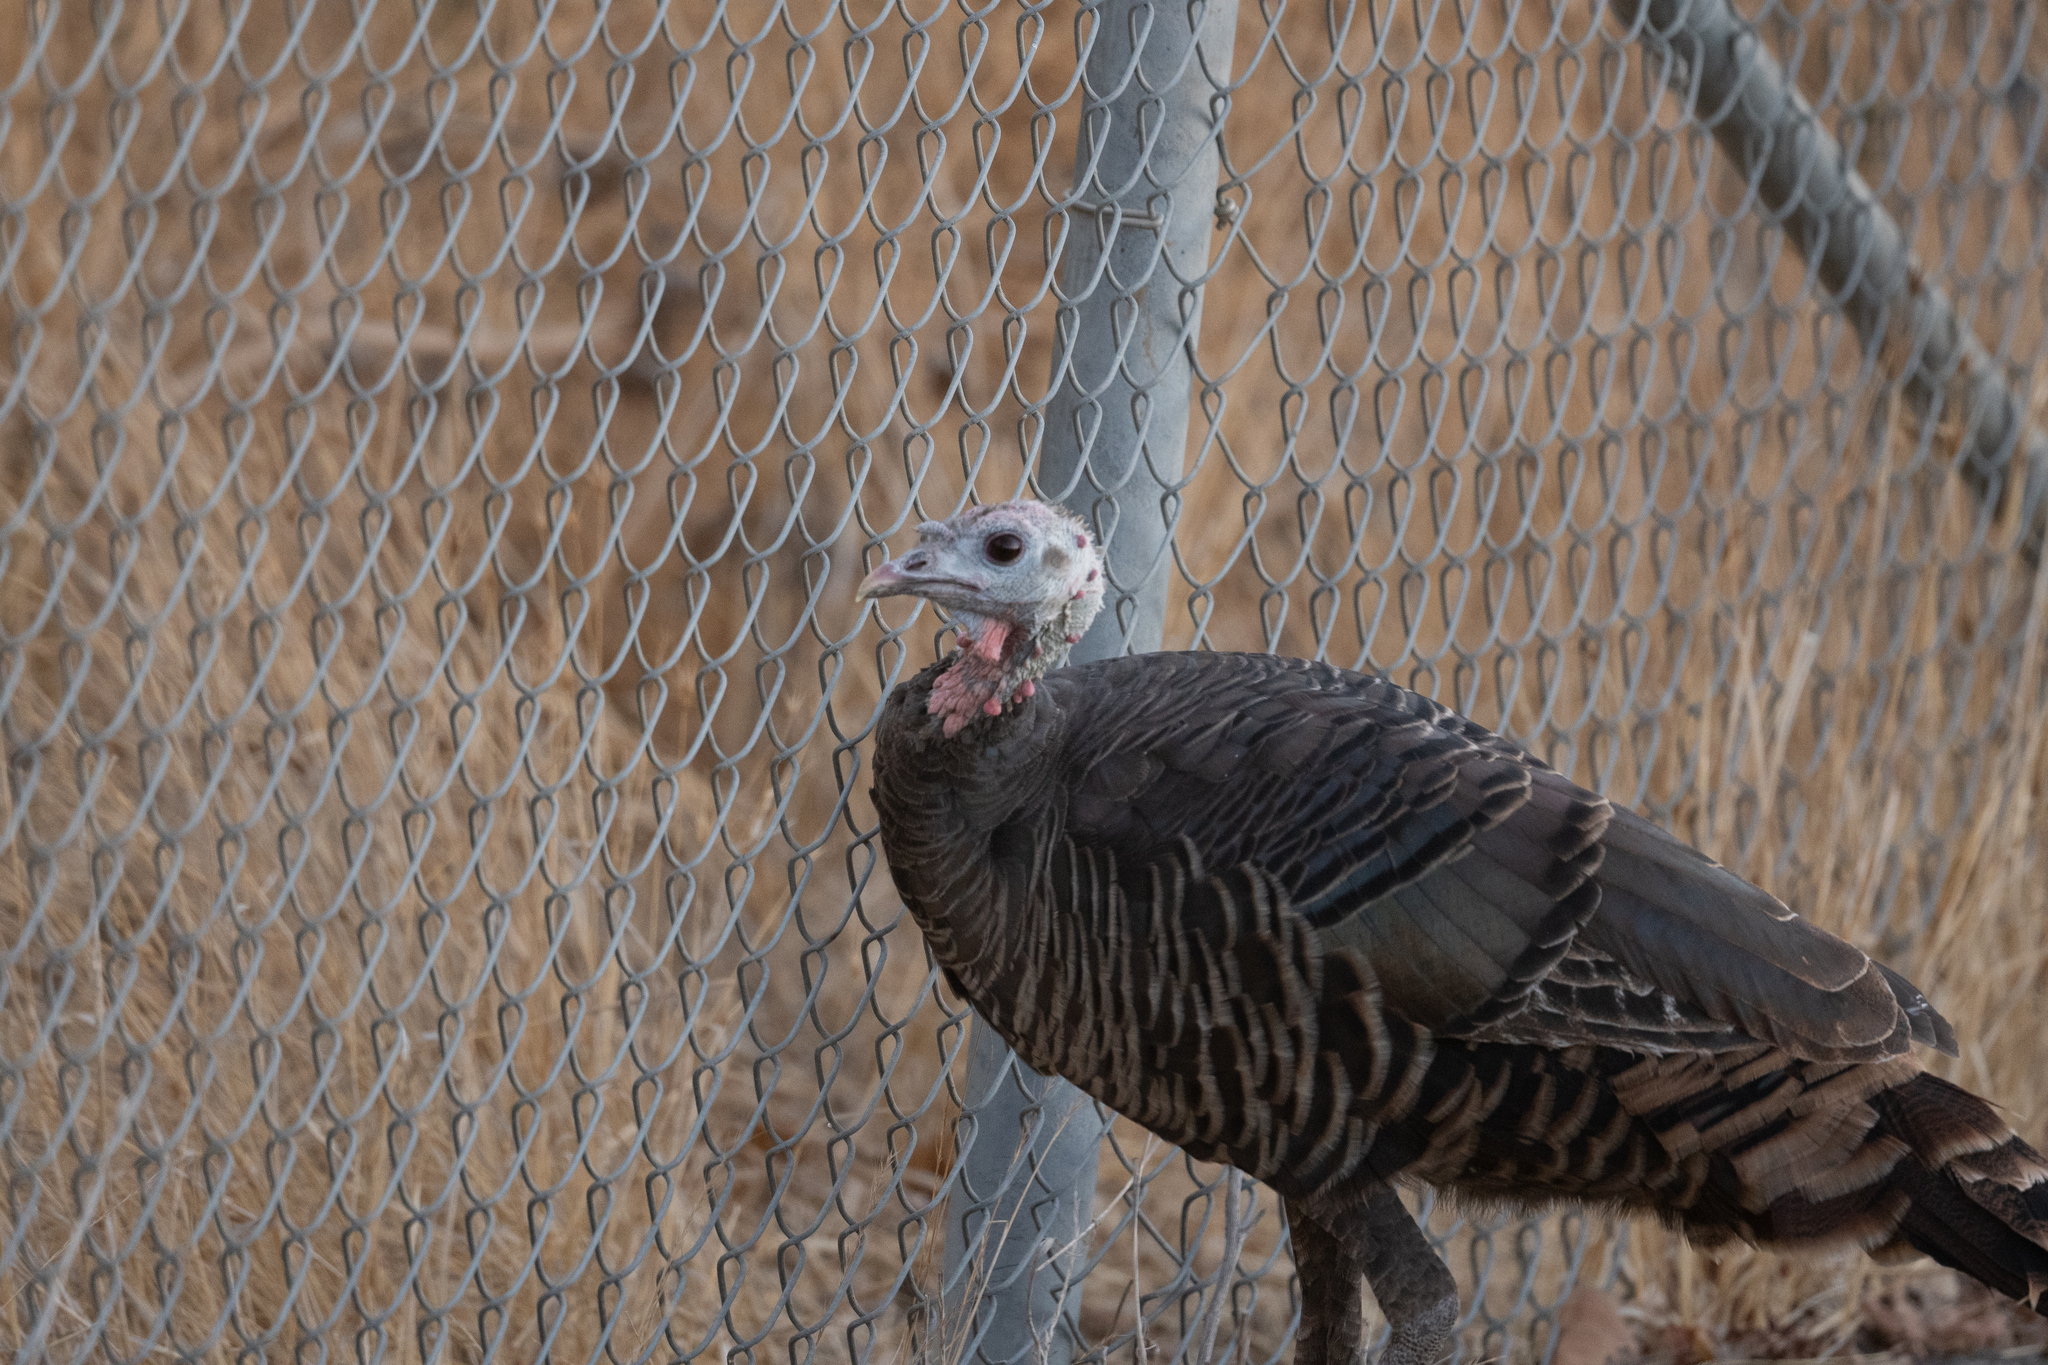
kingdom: Animalia
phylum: Chordata
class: Aves
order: Galliformes
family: Phasianidae
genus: Meleagris
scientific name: Meleagris gallopavo
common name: Wild turkey
